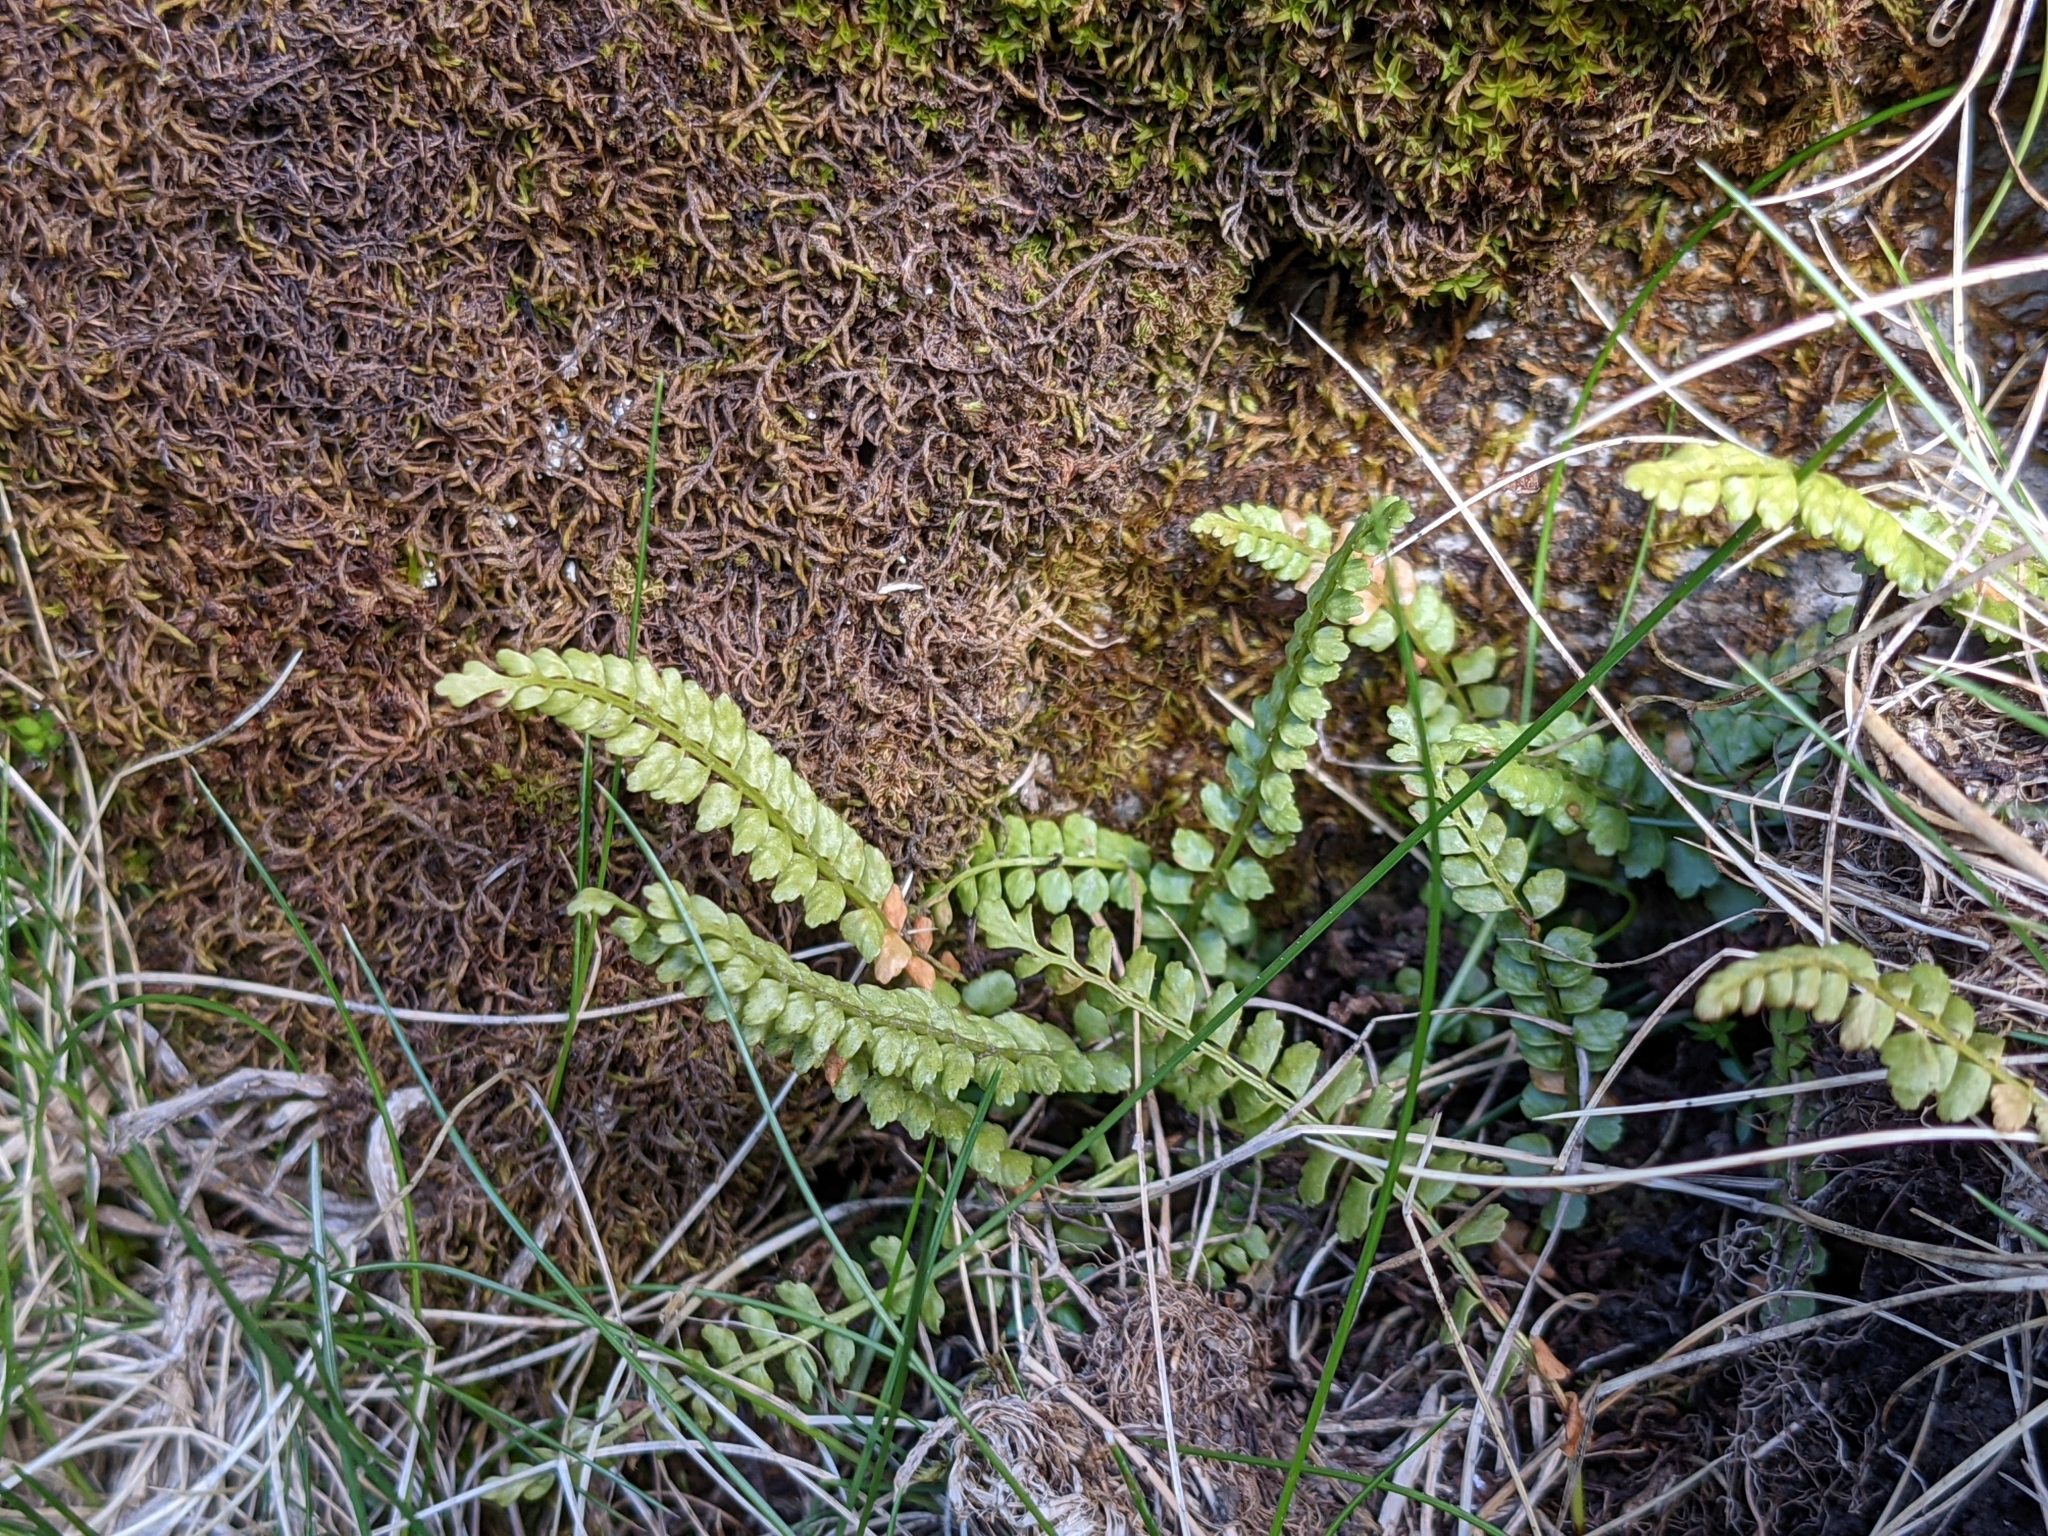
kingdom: Plantae
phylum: Tracheophyta
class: Polypodiopsida
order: Polypodiales
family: Aspleniaceae
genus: Asplenium
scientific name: Asplenium viride
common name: Green spleenwort
